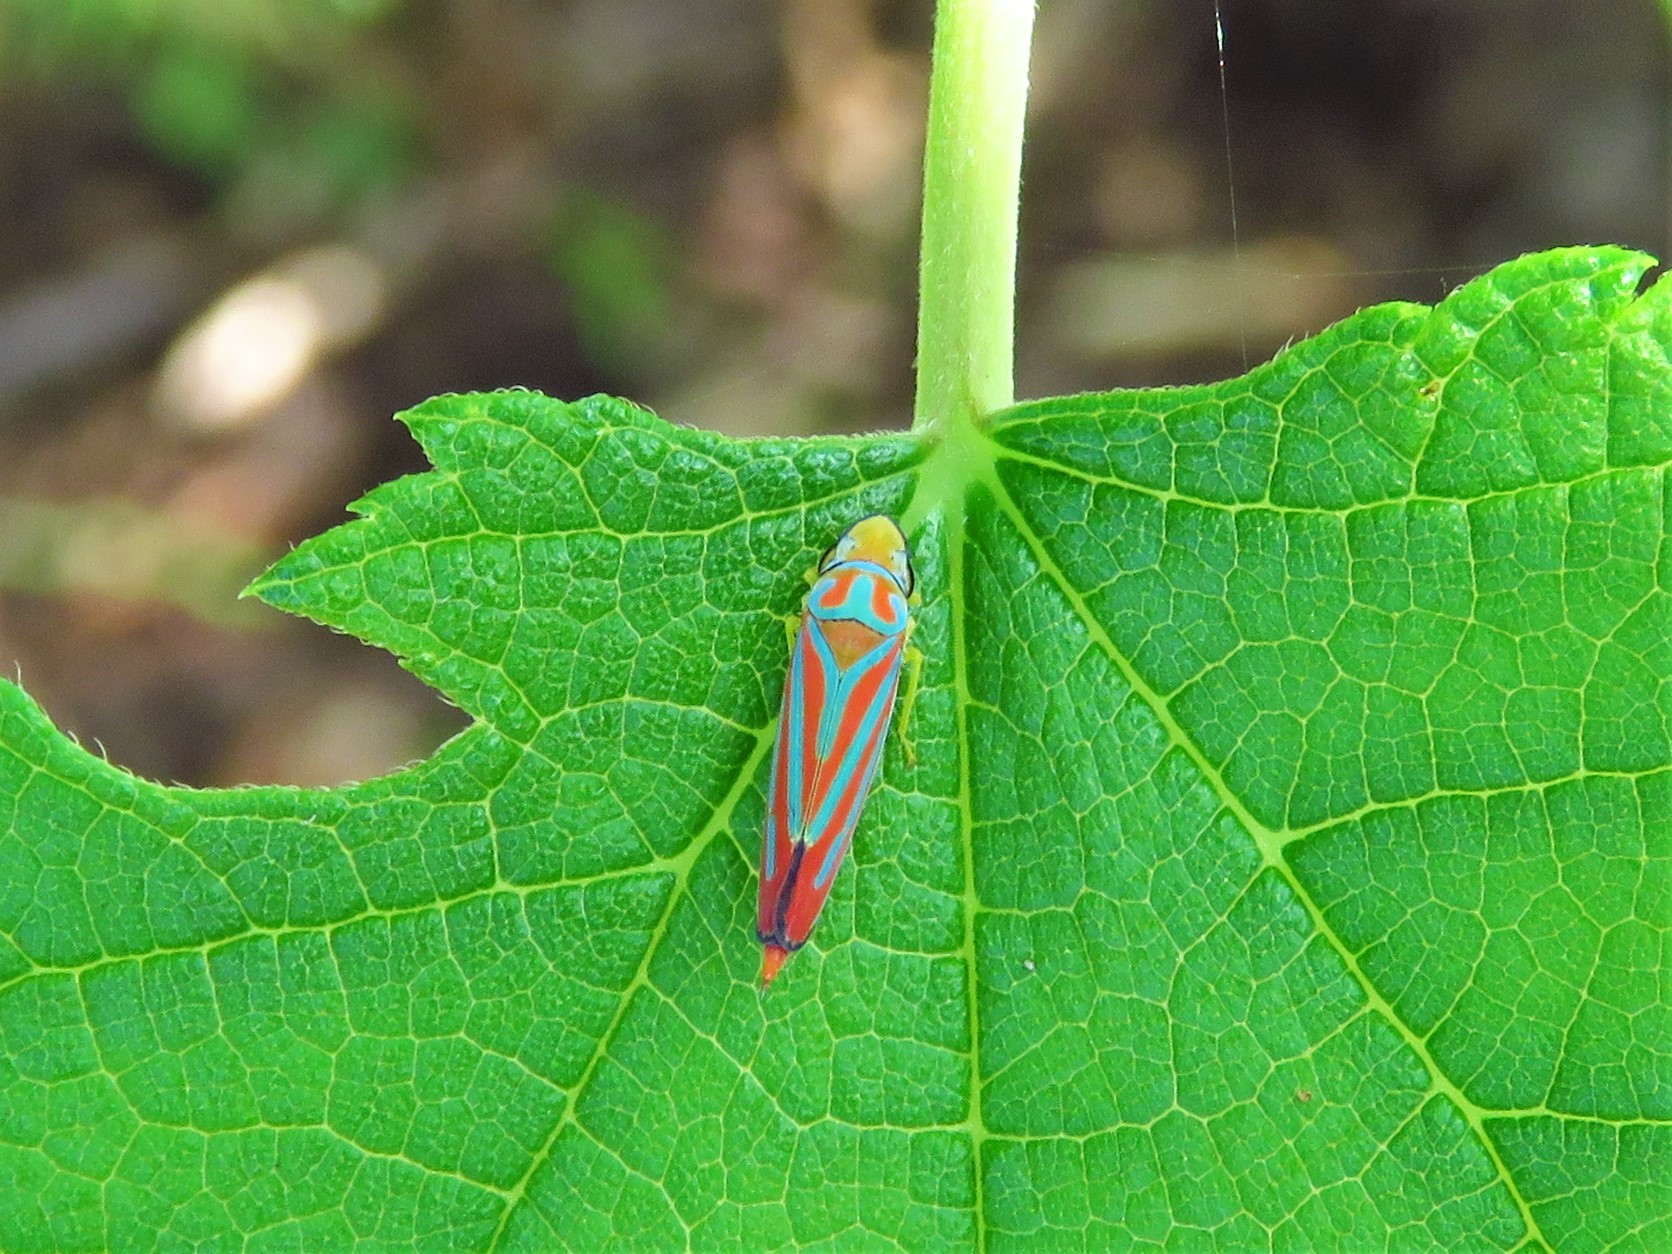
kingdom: Animalia
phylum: Arthropoda
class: Insecta
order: Hemiptera
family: Cicadellidae
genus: Graphocephala
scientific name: Graphocephala coccinea
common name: Candy-striped leafhopper
